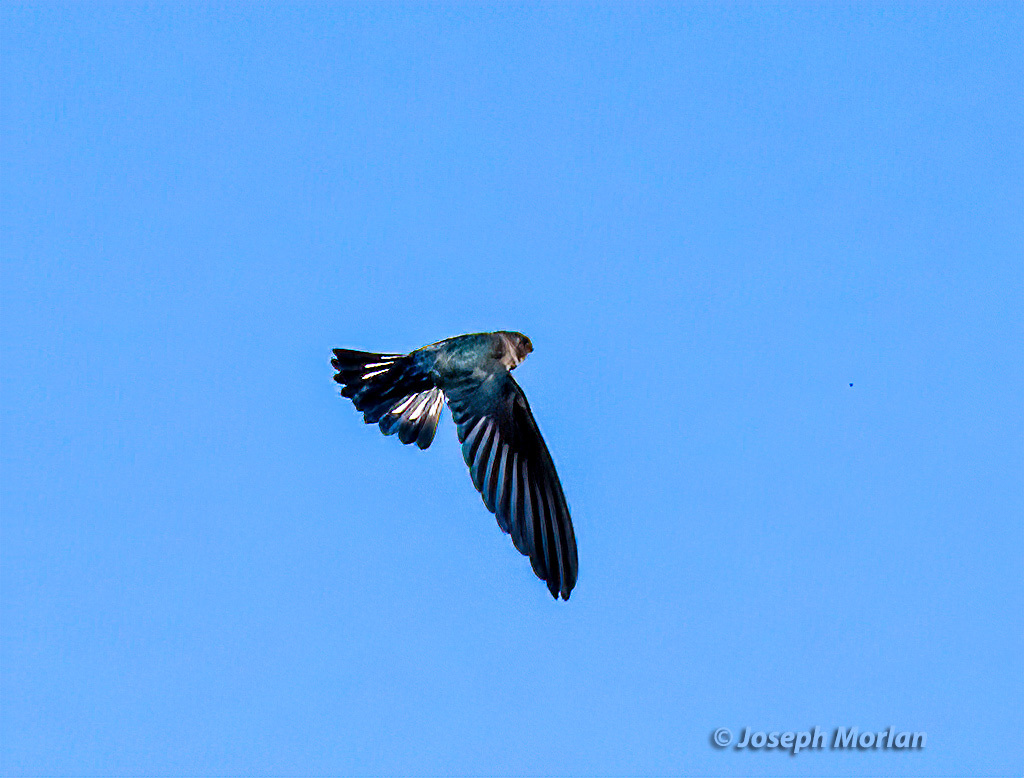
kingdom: Animalia
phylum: Chordata
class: Aves
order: Apodiformes
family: Apodidae
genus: Collocalia
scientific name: Collocalia esculenta
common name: Glossy swiftlet
